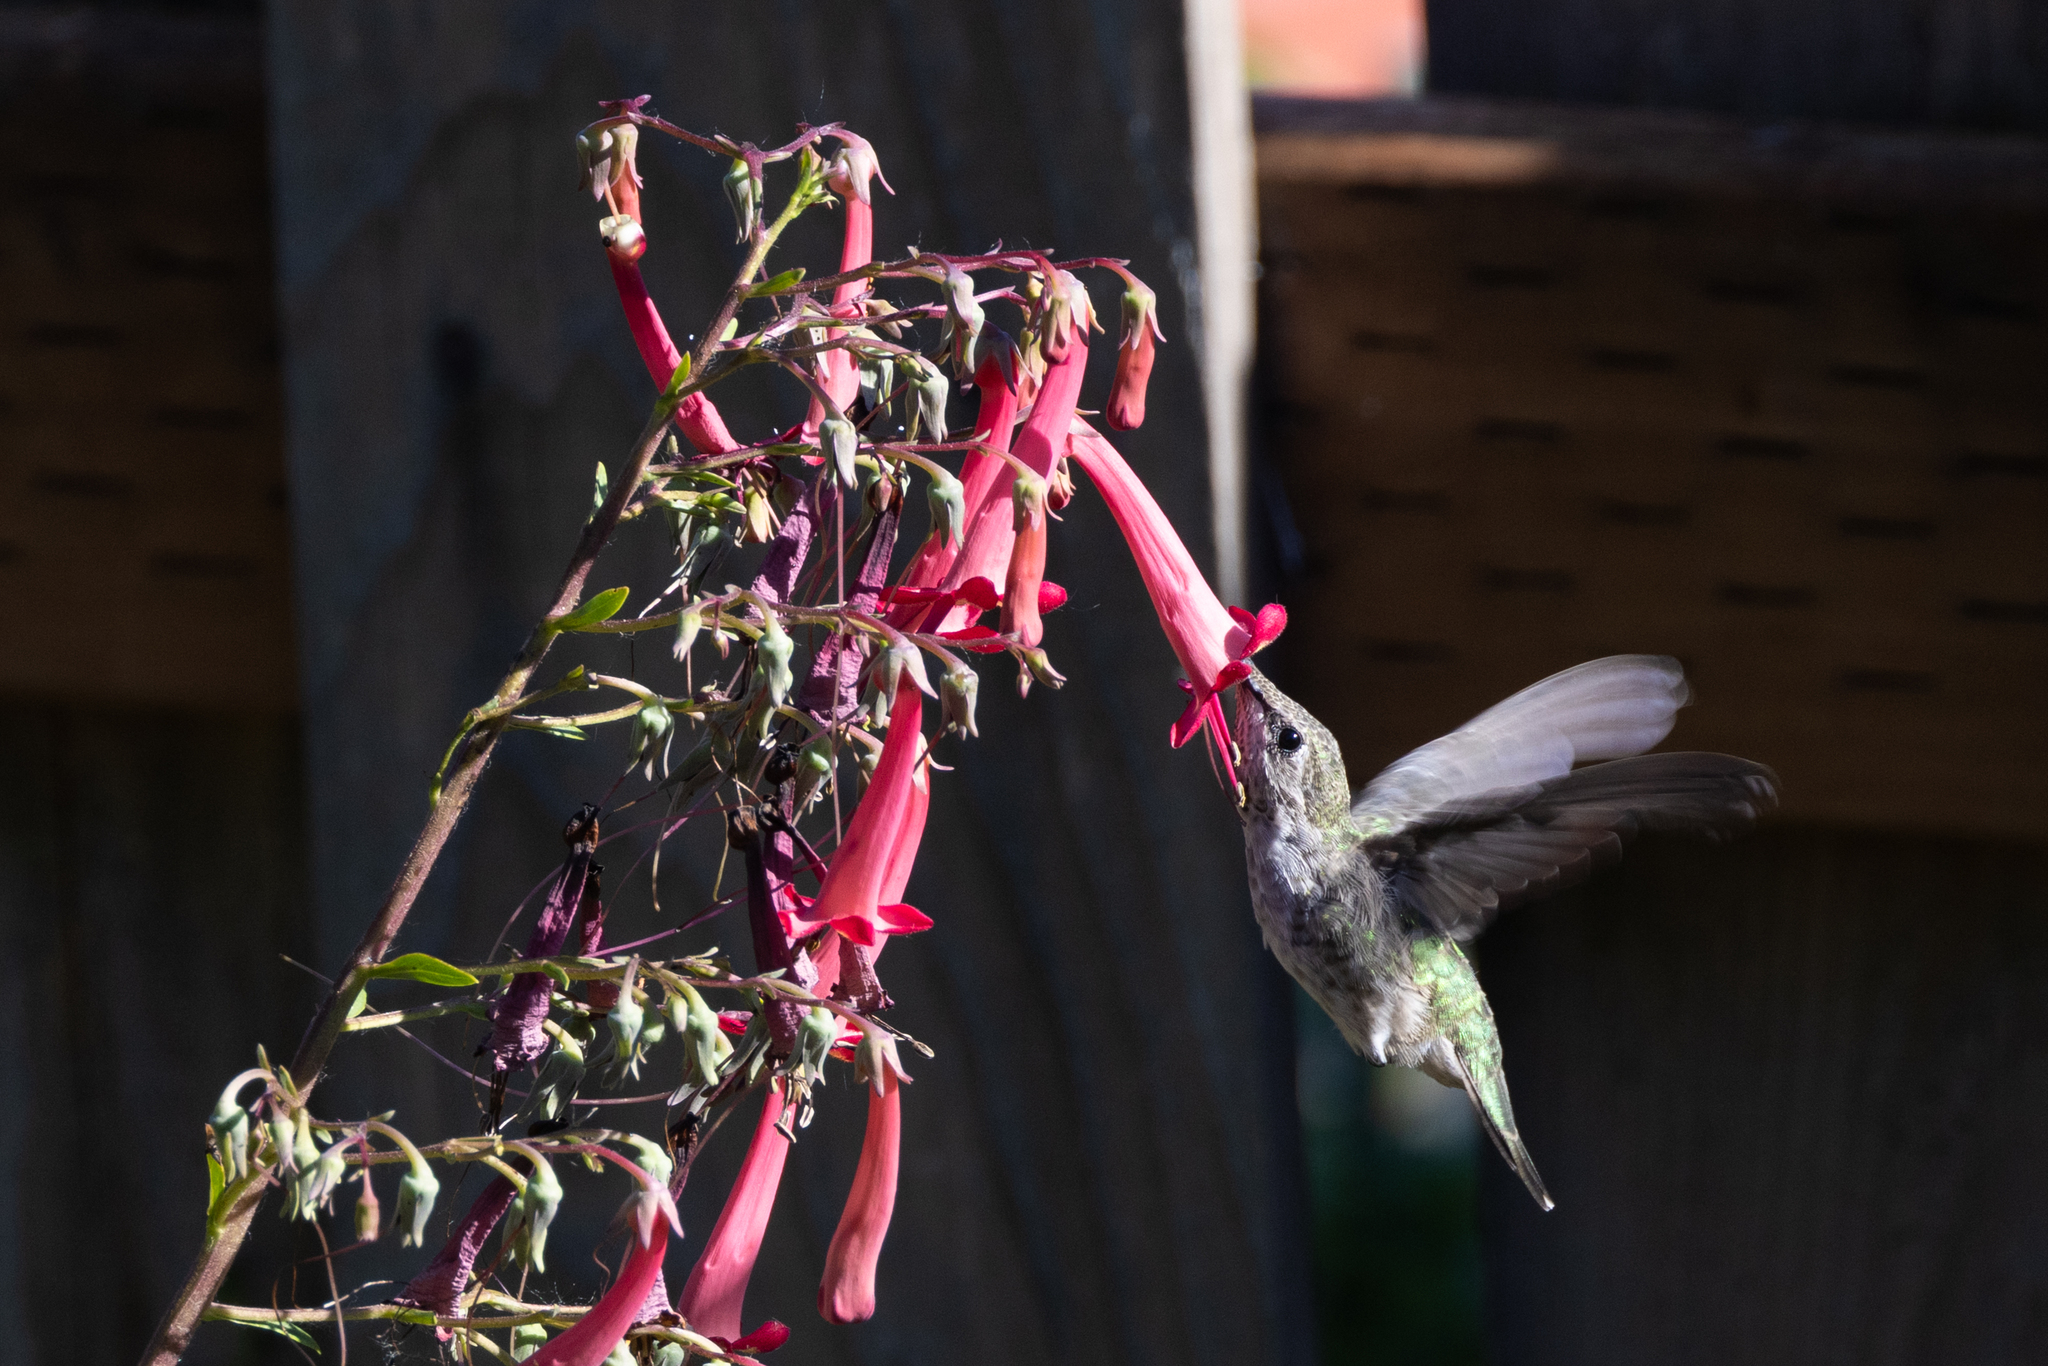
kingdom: Animalia
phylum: Chordata
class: Aves
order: Apodiformes
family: Trochilidae
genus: Calypte
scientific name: Calypte anna
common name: Anna's hummingbird
